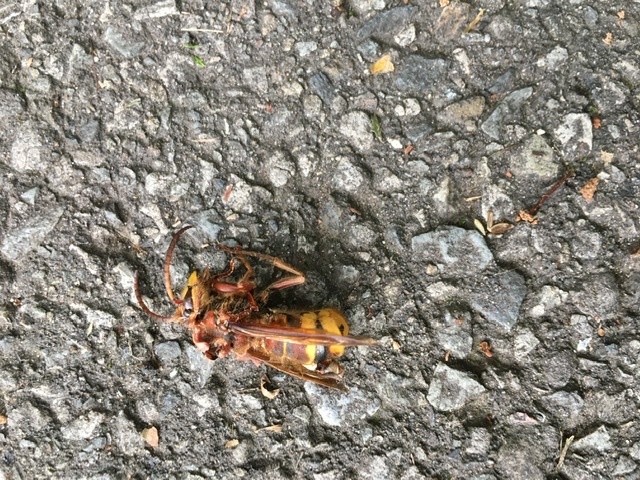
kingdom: Animalia
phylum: Arthropoda
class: Insecta
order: Hymenoptera
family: Vespidae
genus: Vespa
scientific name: Vespa crabro
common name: Hornet
